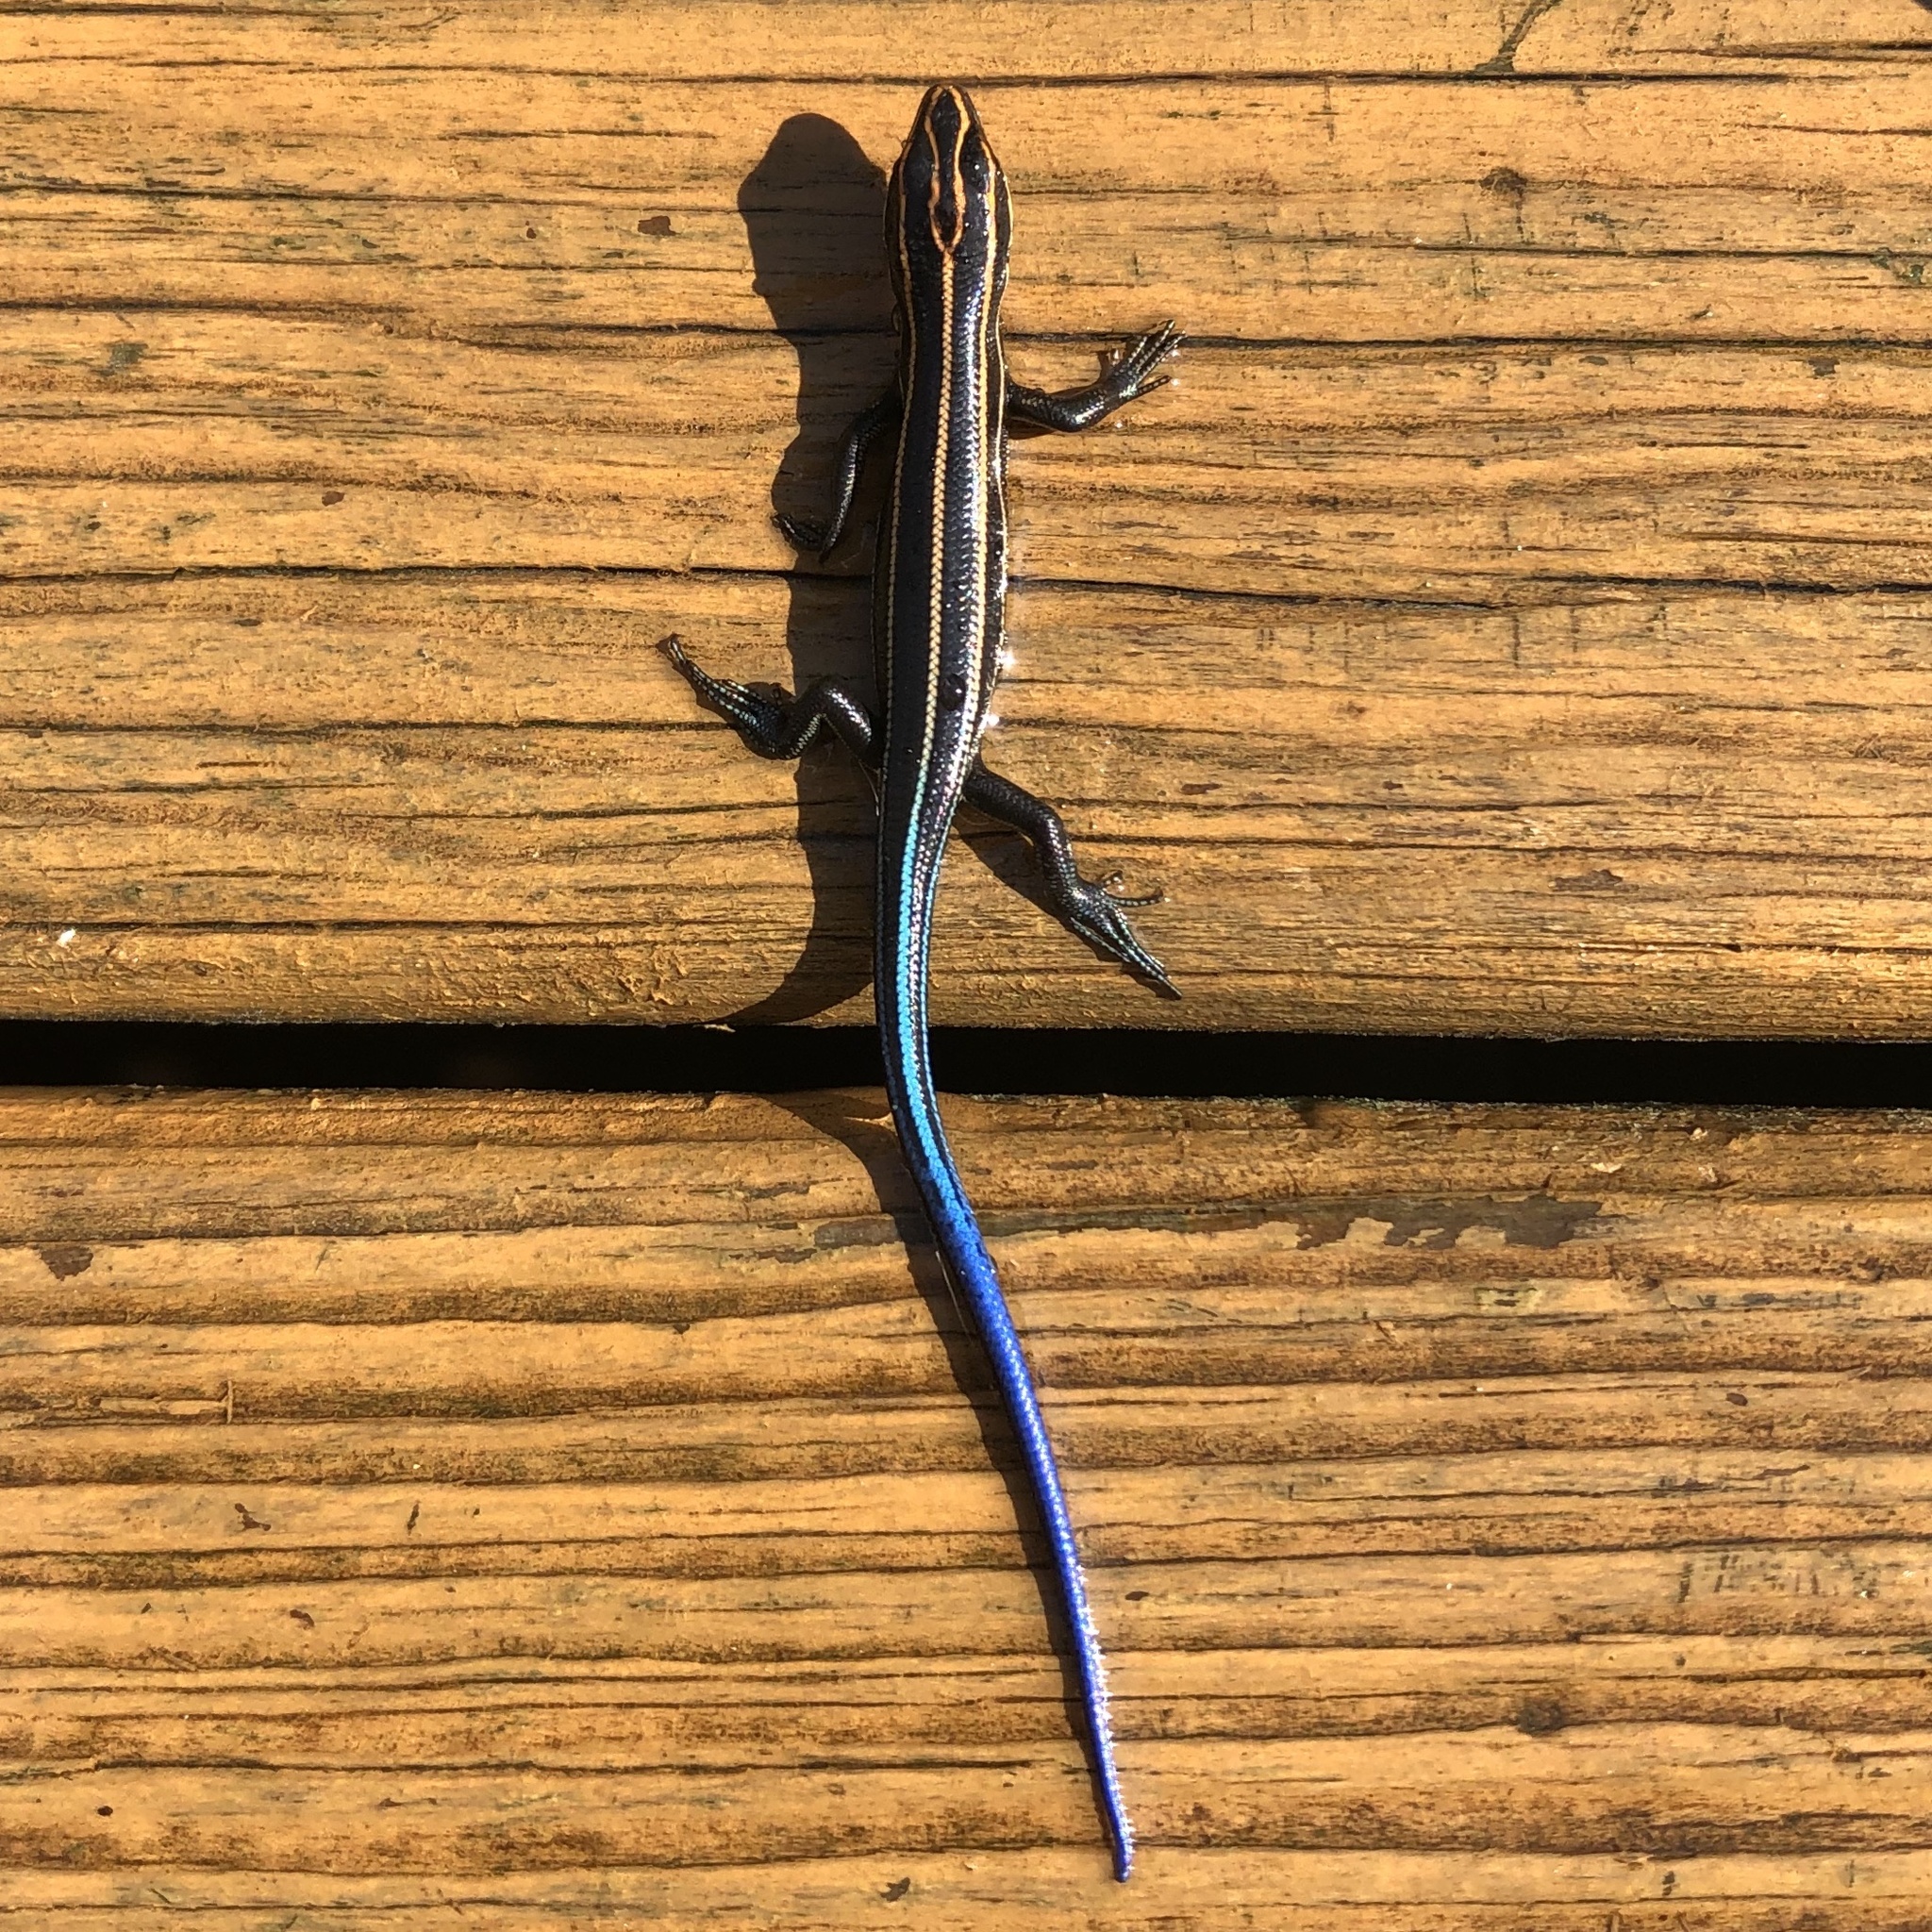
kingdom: Animalia
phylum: Chordata
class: Squamata
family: Scincidae
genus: Plestiodon
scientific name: Plestiodon fasciatus
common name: Five-lined skink
